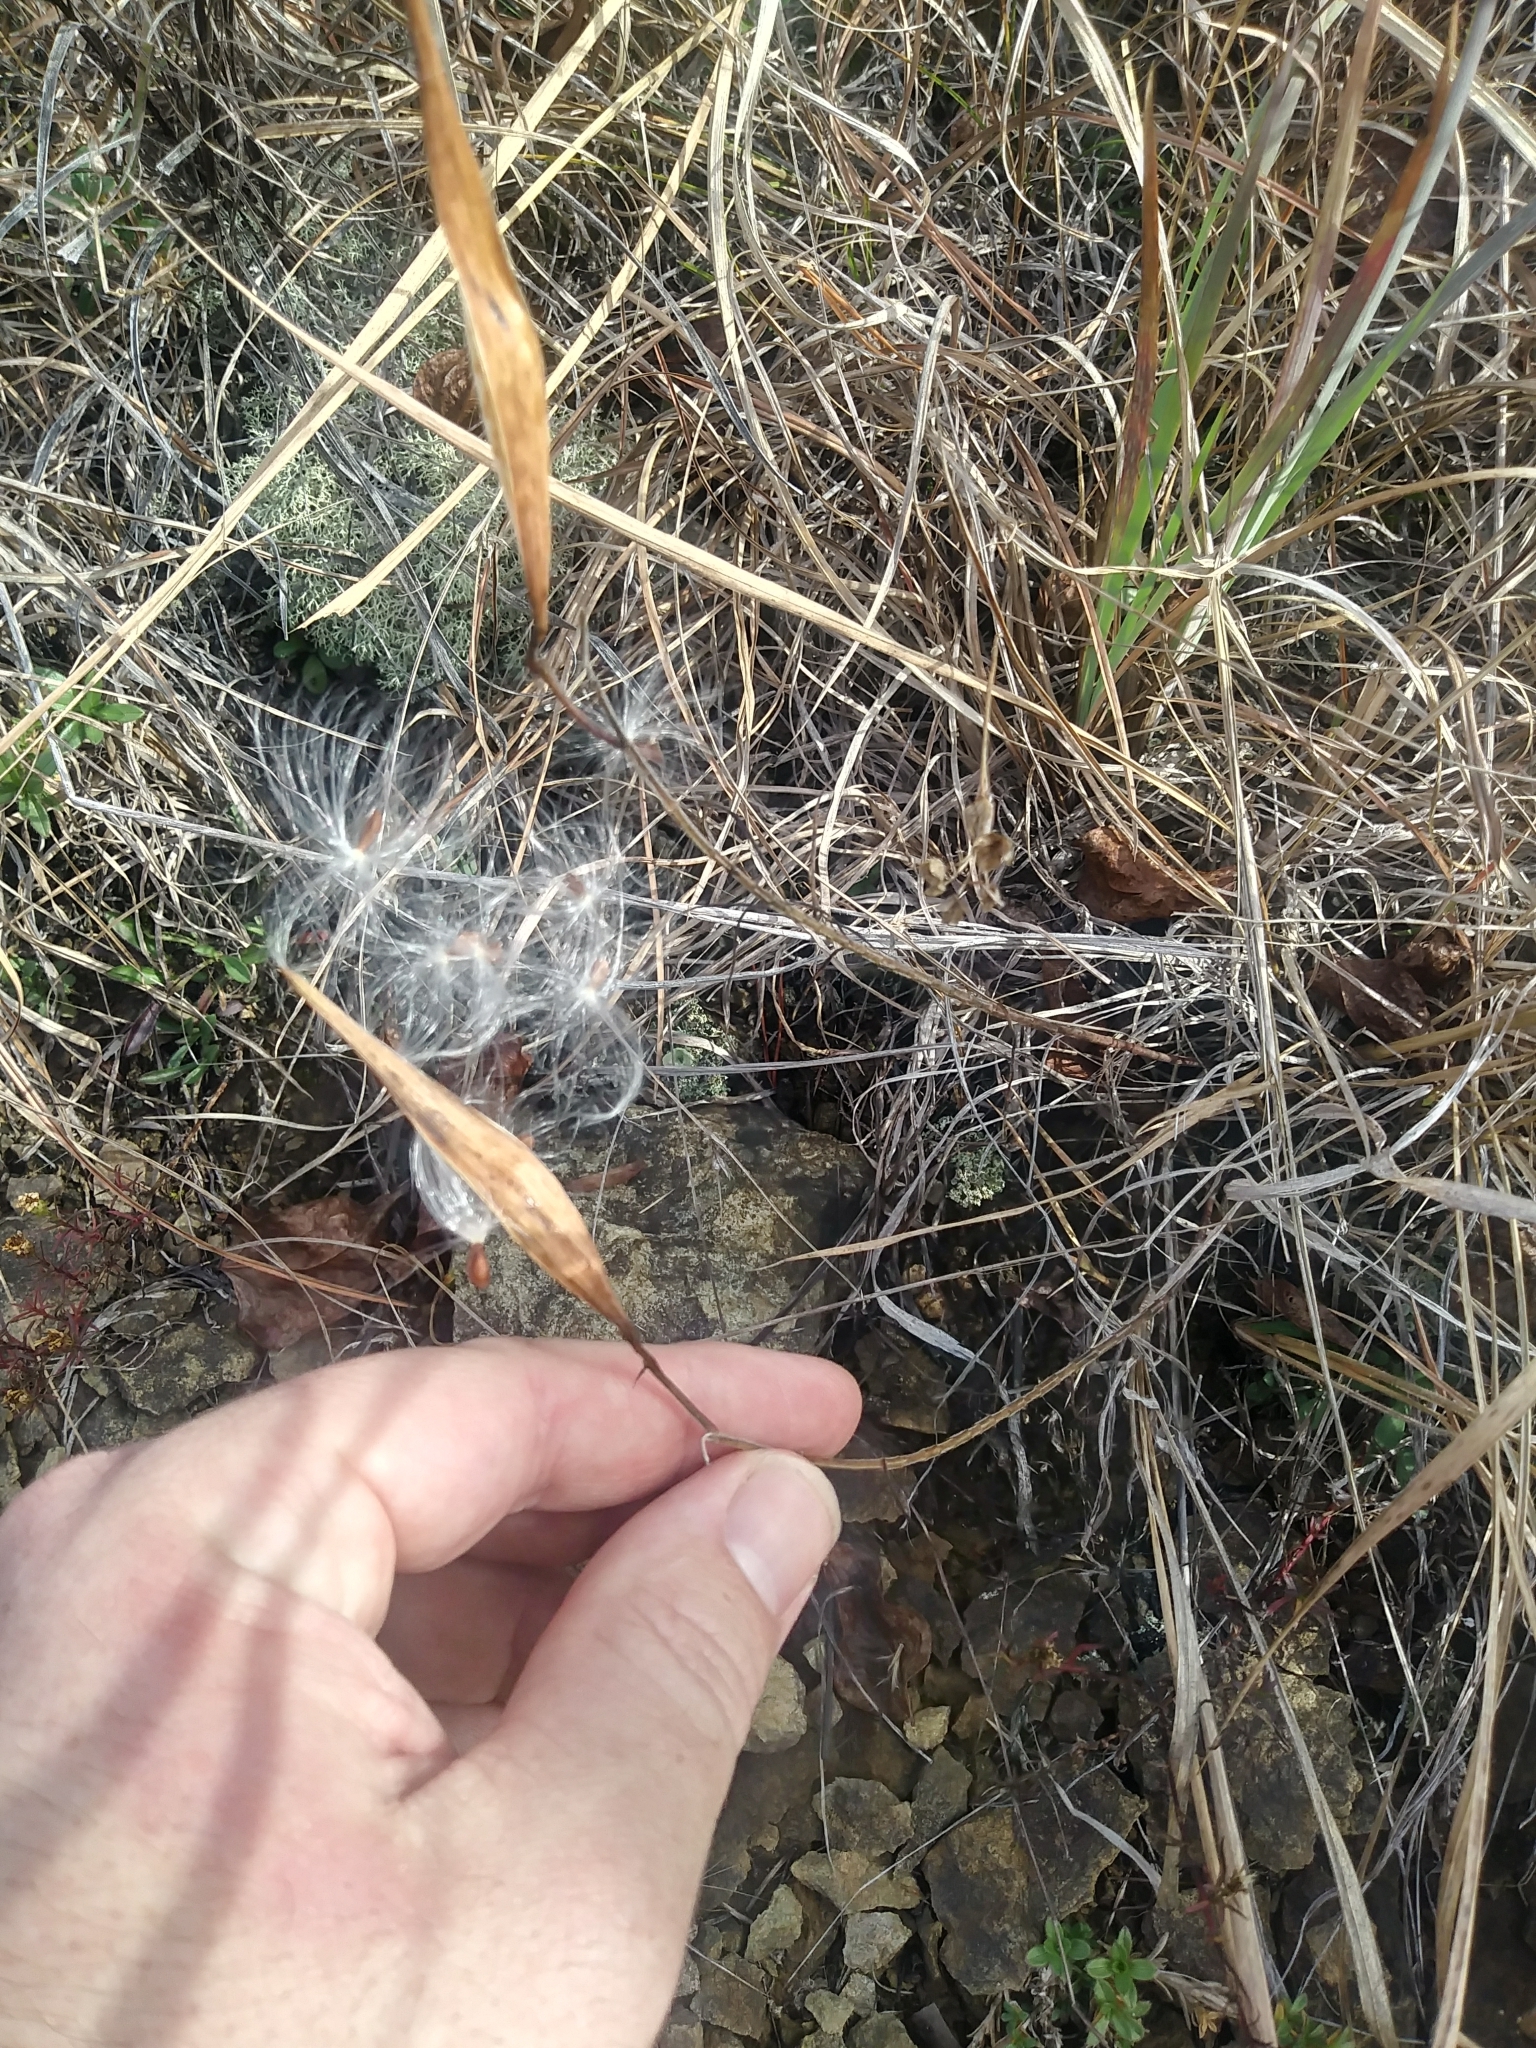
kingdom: Plantae
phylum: Tracheophyta
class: Magnoliopsida
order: Gentianales
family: Apocynaceae
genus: Asclepias
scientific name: Asclepias verticillata
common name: Eastern whorled milkweed
